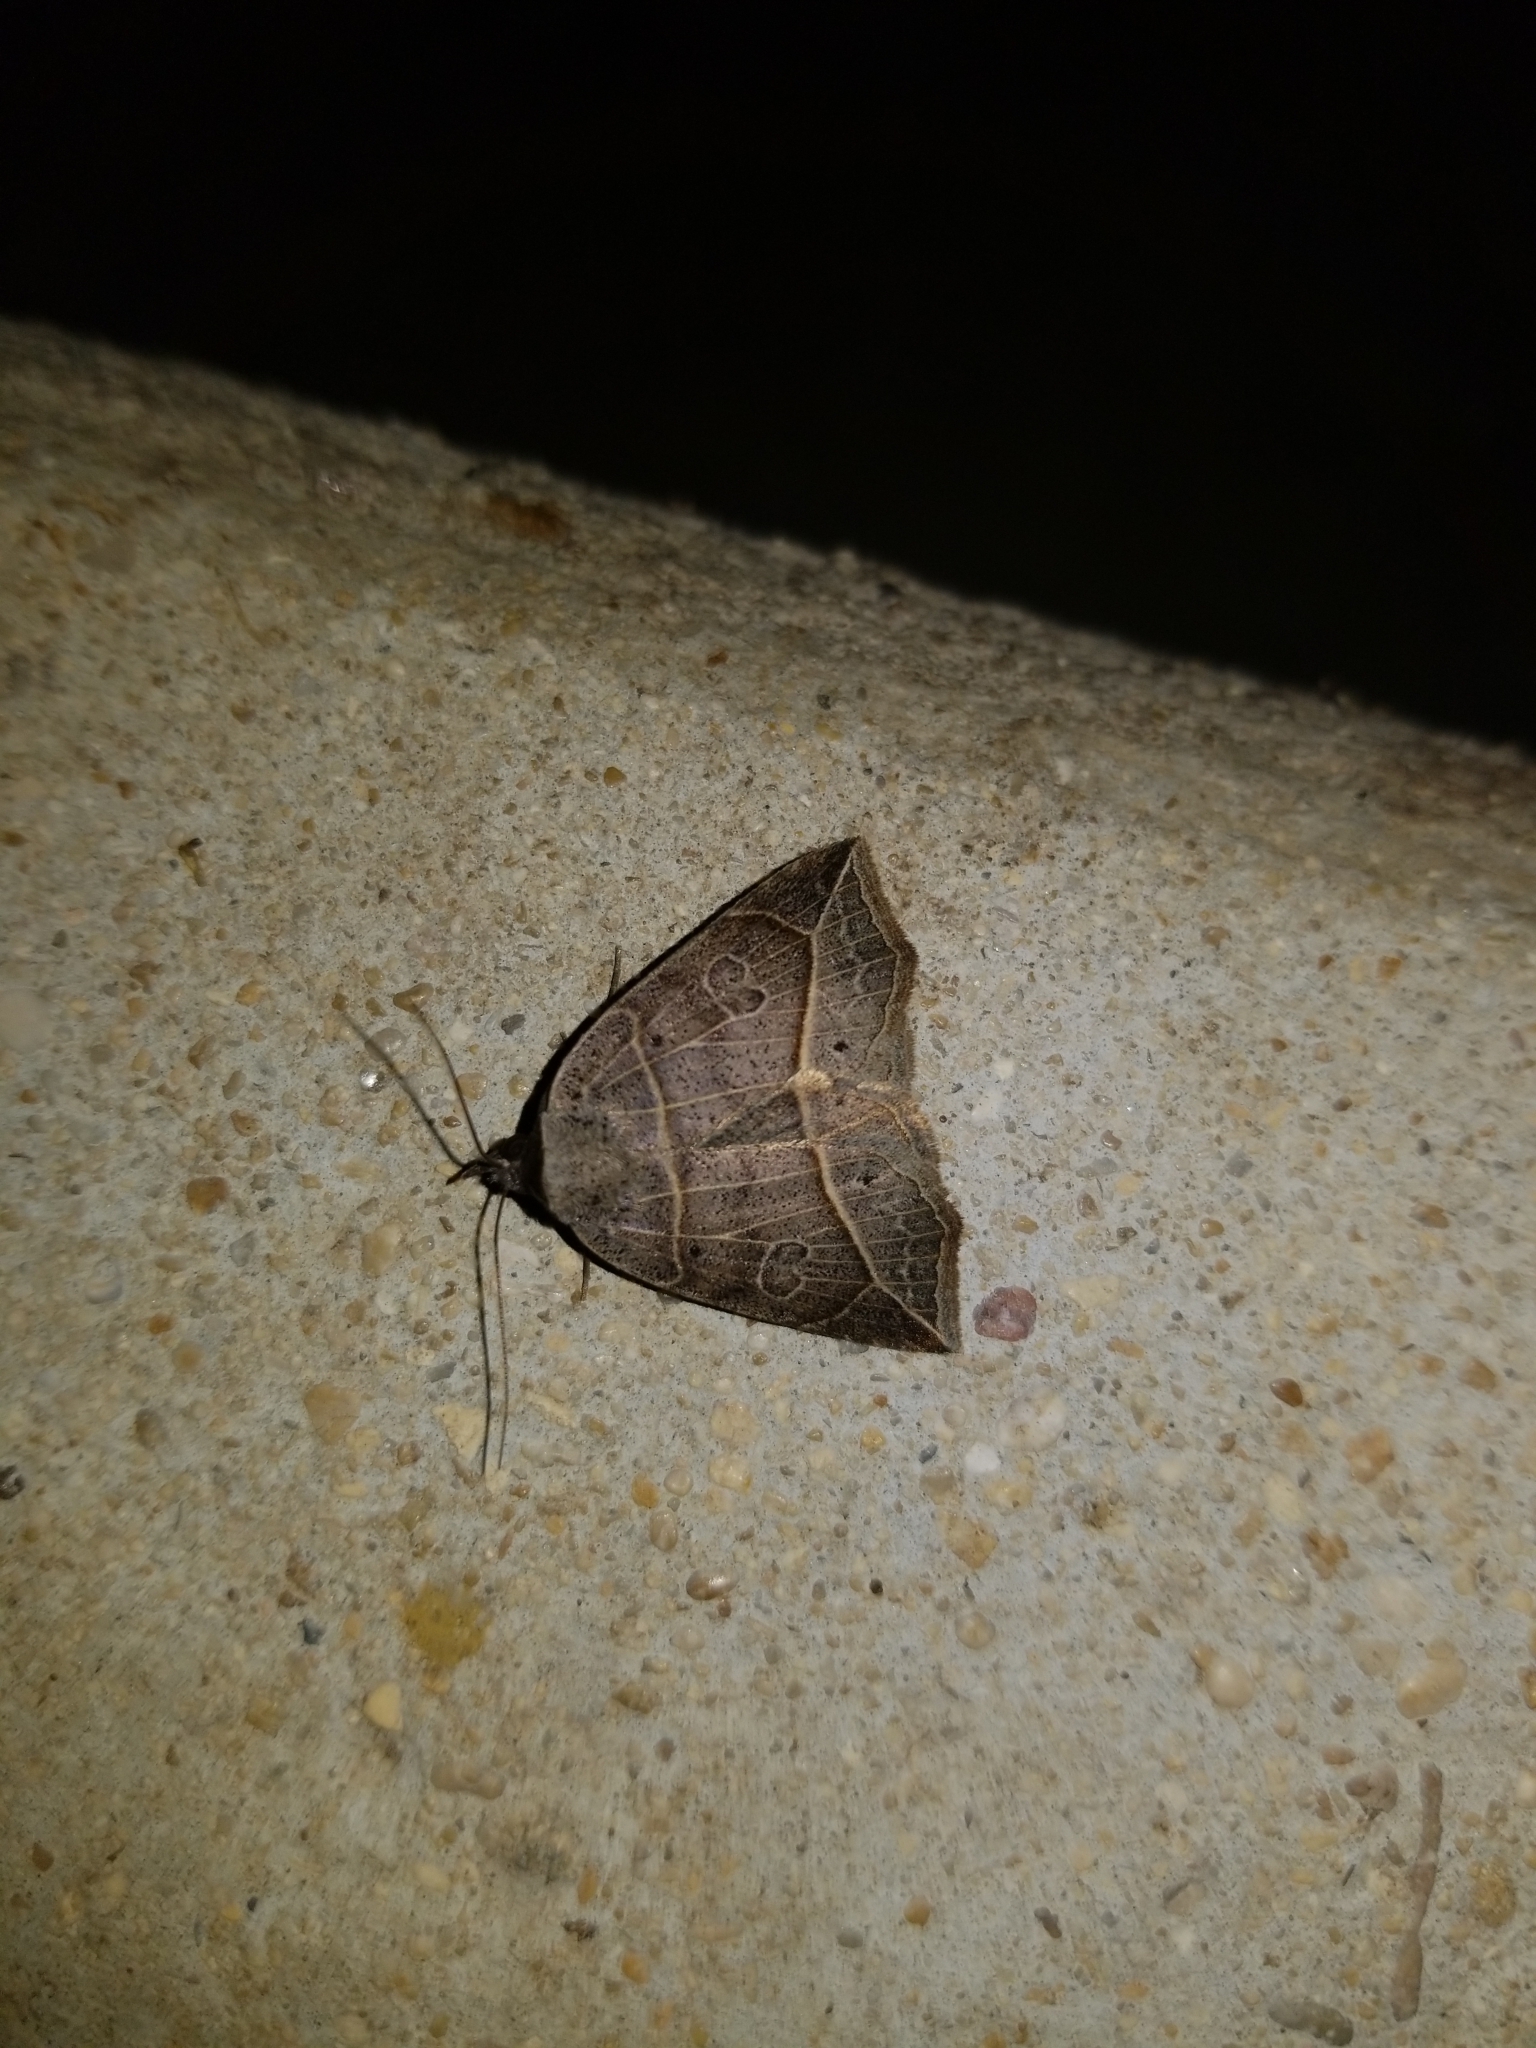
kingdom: Animalia
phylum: Arthropoda
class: Insecta
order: Lepidoptera
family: Erebidae
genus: Isogona
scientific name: Isogona tenuis
